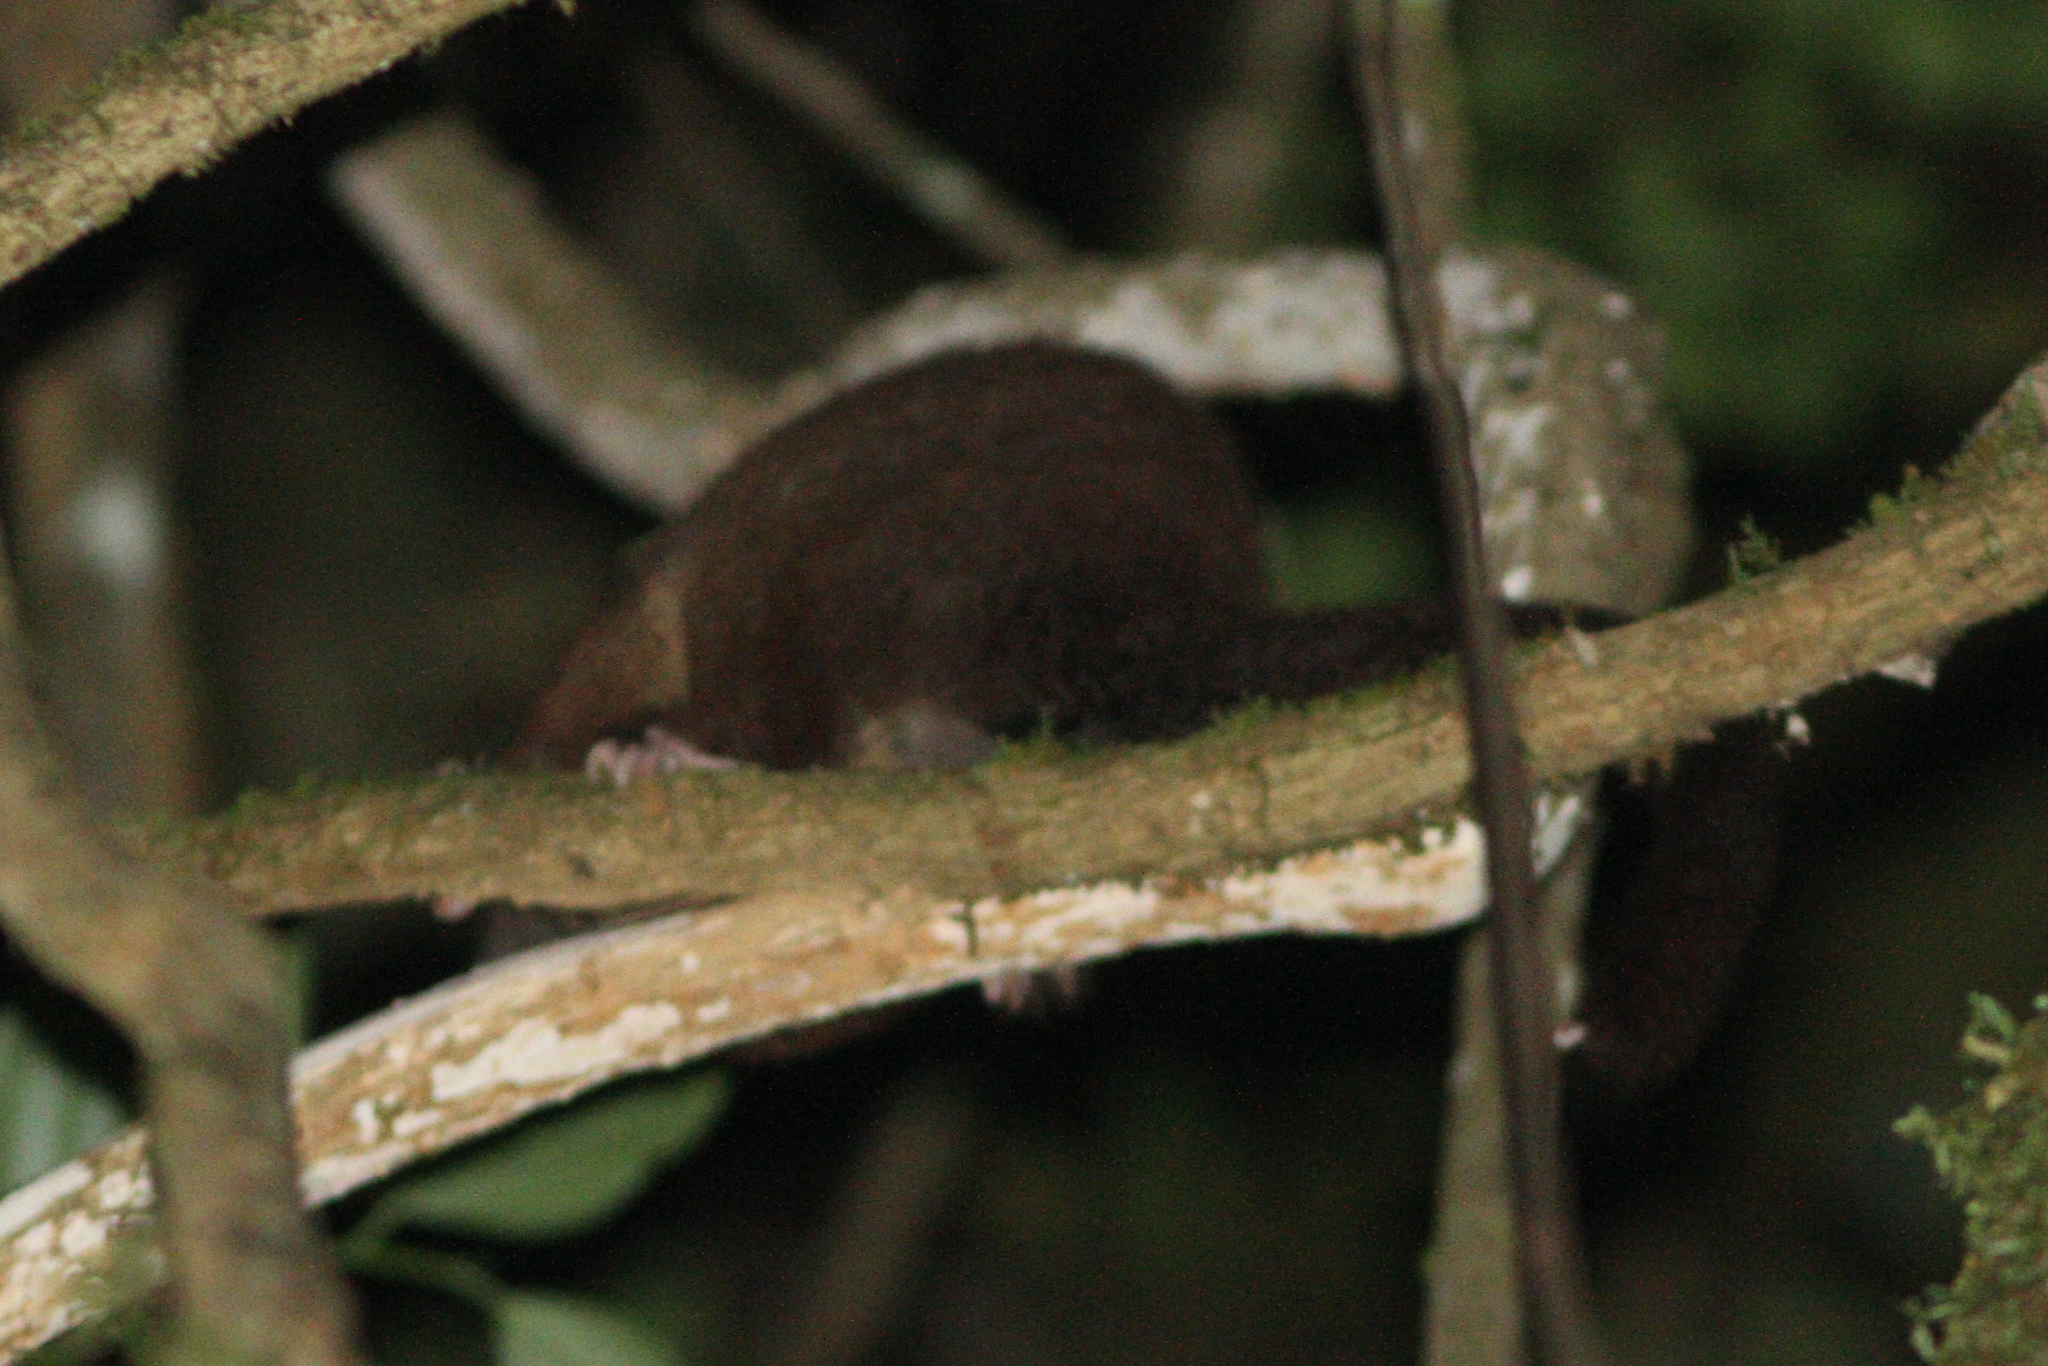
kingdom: Animalia
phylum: Chordata
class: Mammalia
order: Diprotodontia
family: Pseudocheiridae
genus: Hemibelideus
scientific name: Hemibelideus lemuroides
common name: Lemur-like ringtail
